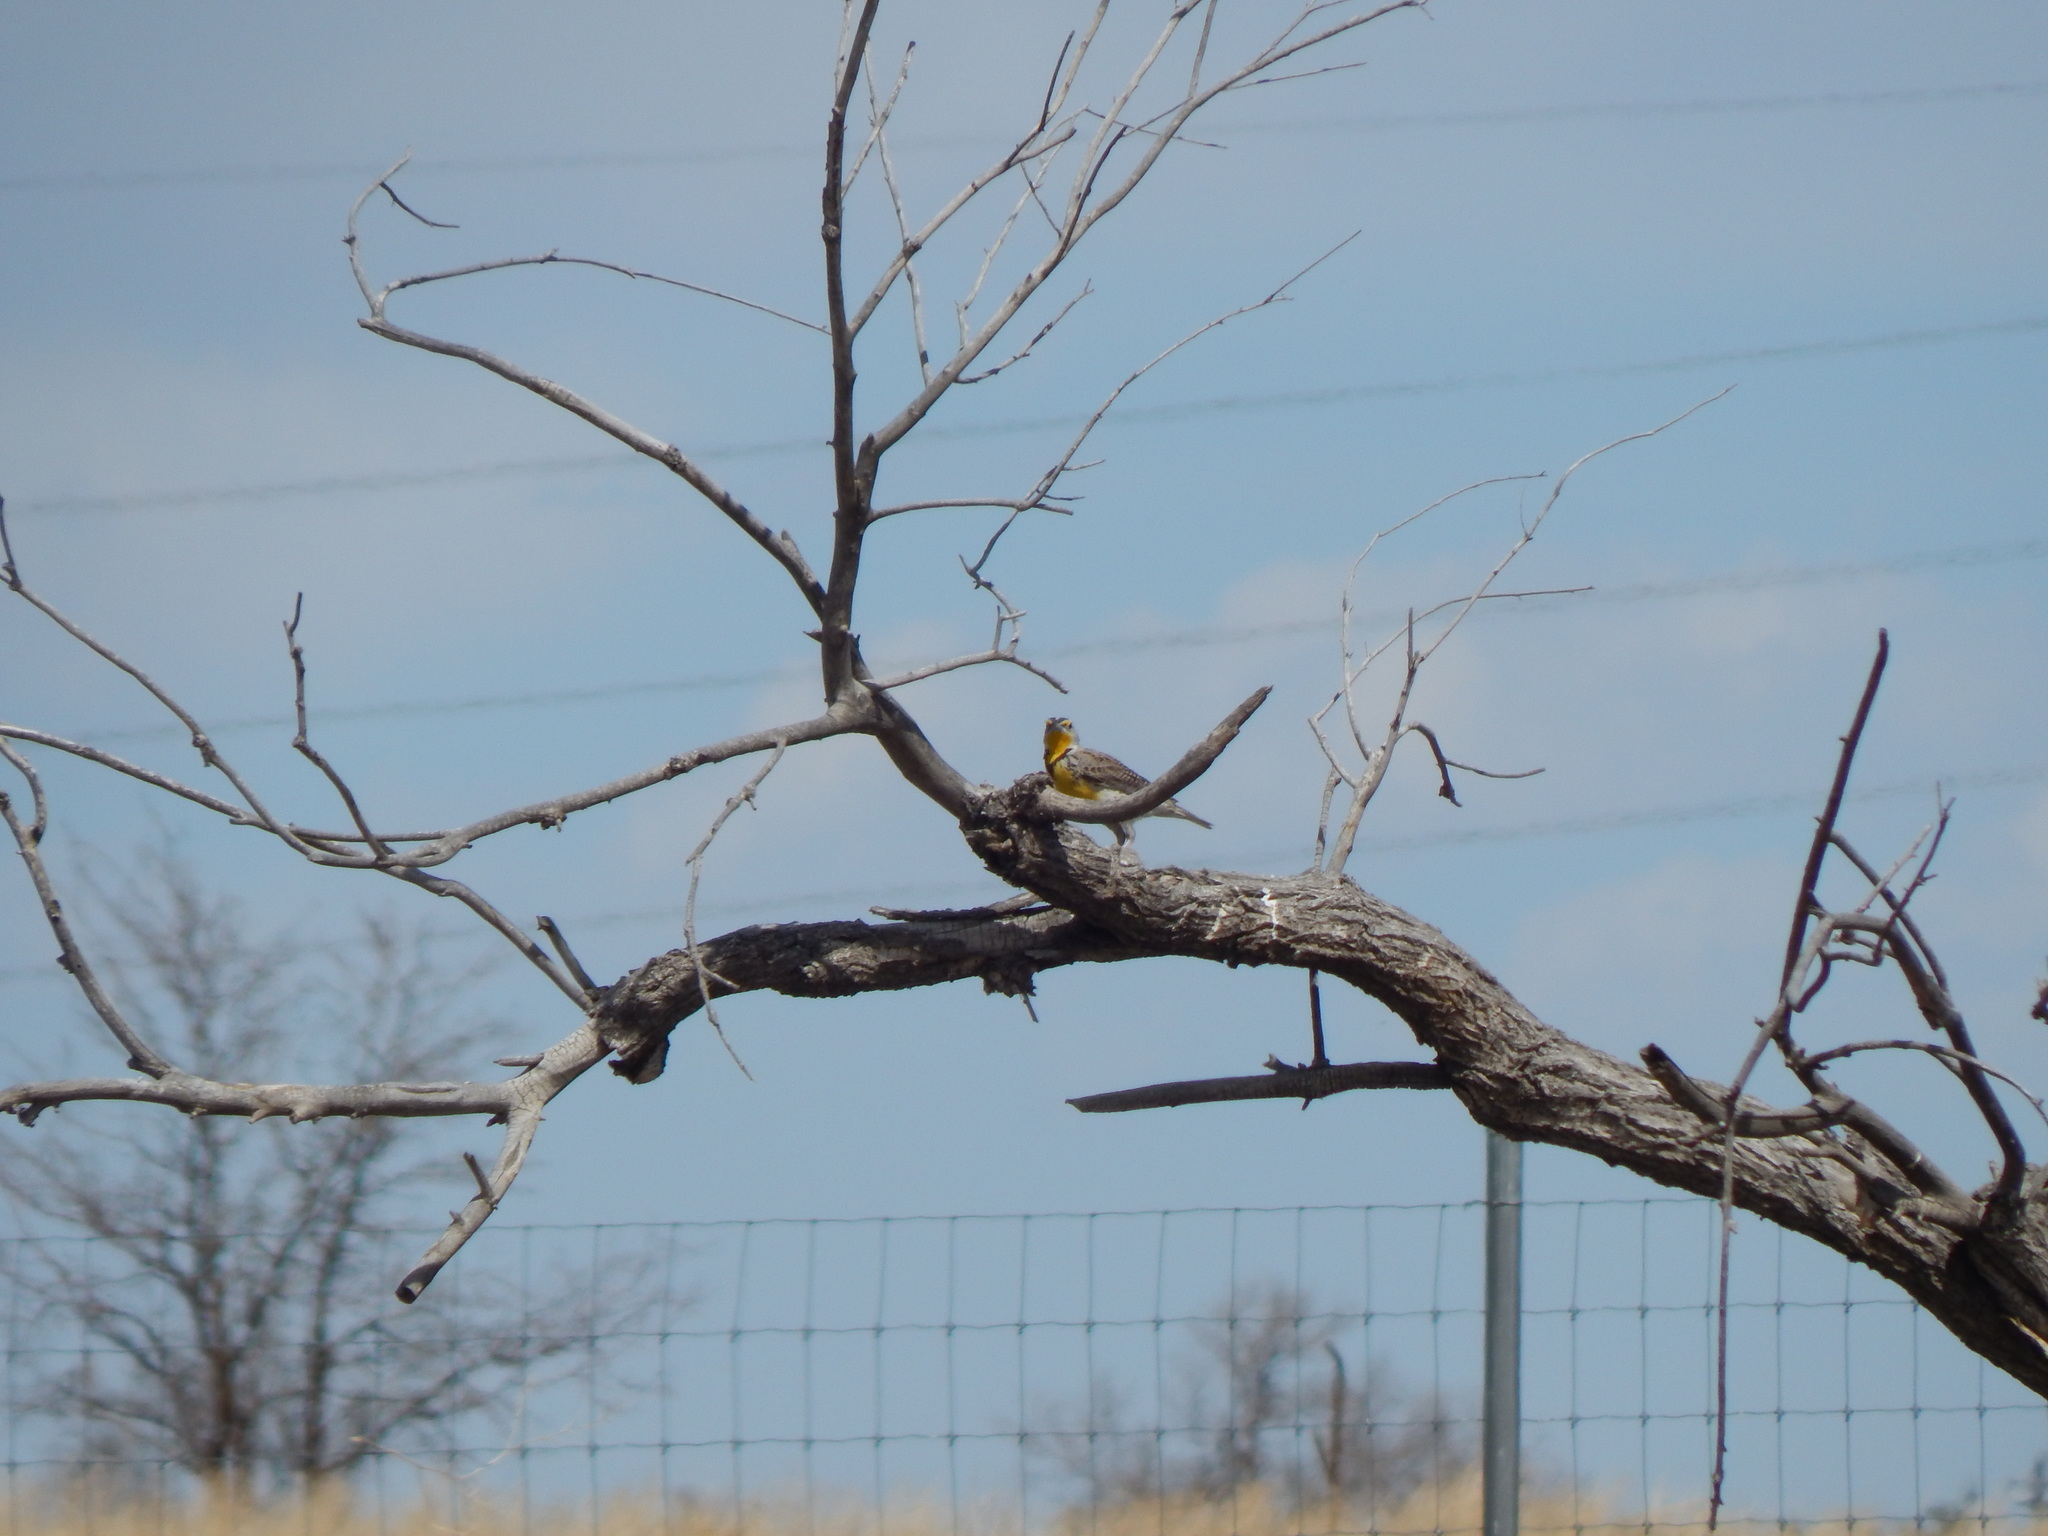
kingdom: Animalia
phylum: Chordata
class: Aves
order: Passeriformes
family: Icteridae
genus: Sturnella
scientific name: Sturnella neglecta
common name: Western meadowlark
